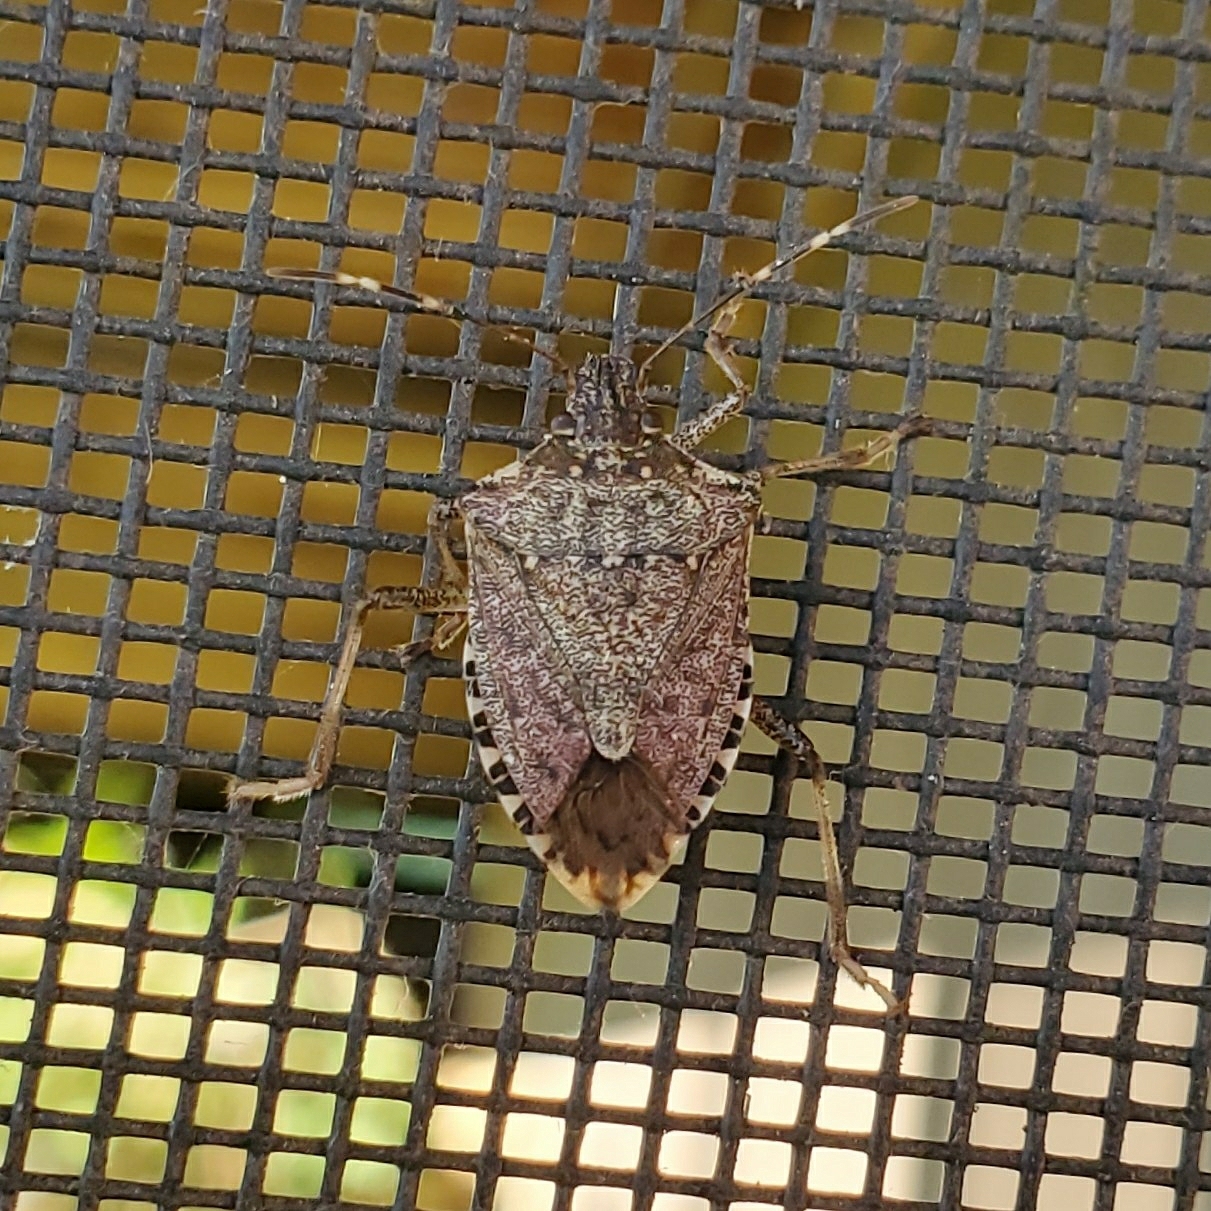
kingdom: Animalia
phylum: Arthropoda
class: Insecta
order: Hemiptera
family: Pentatomidae
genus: Halyomorpha
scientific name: Halyomorpha halys
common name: Brown marmorated stink bug
